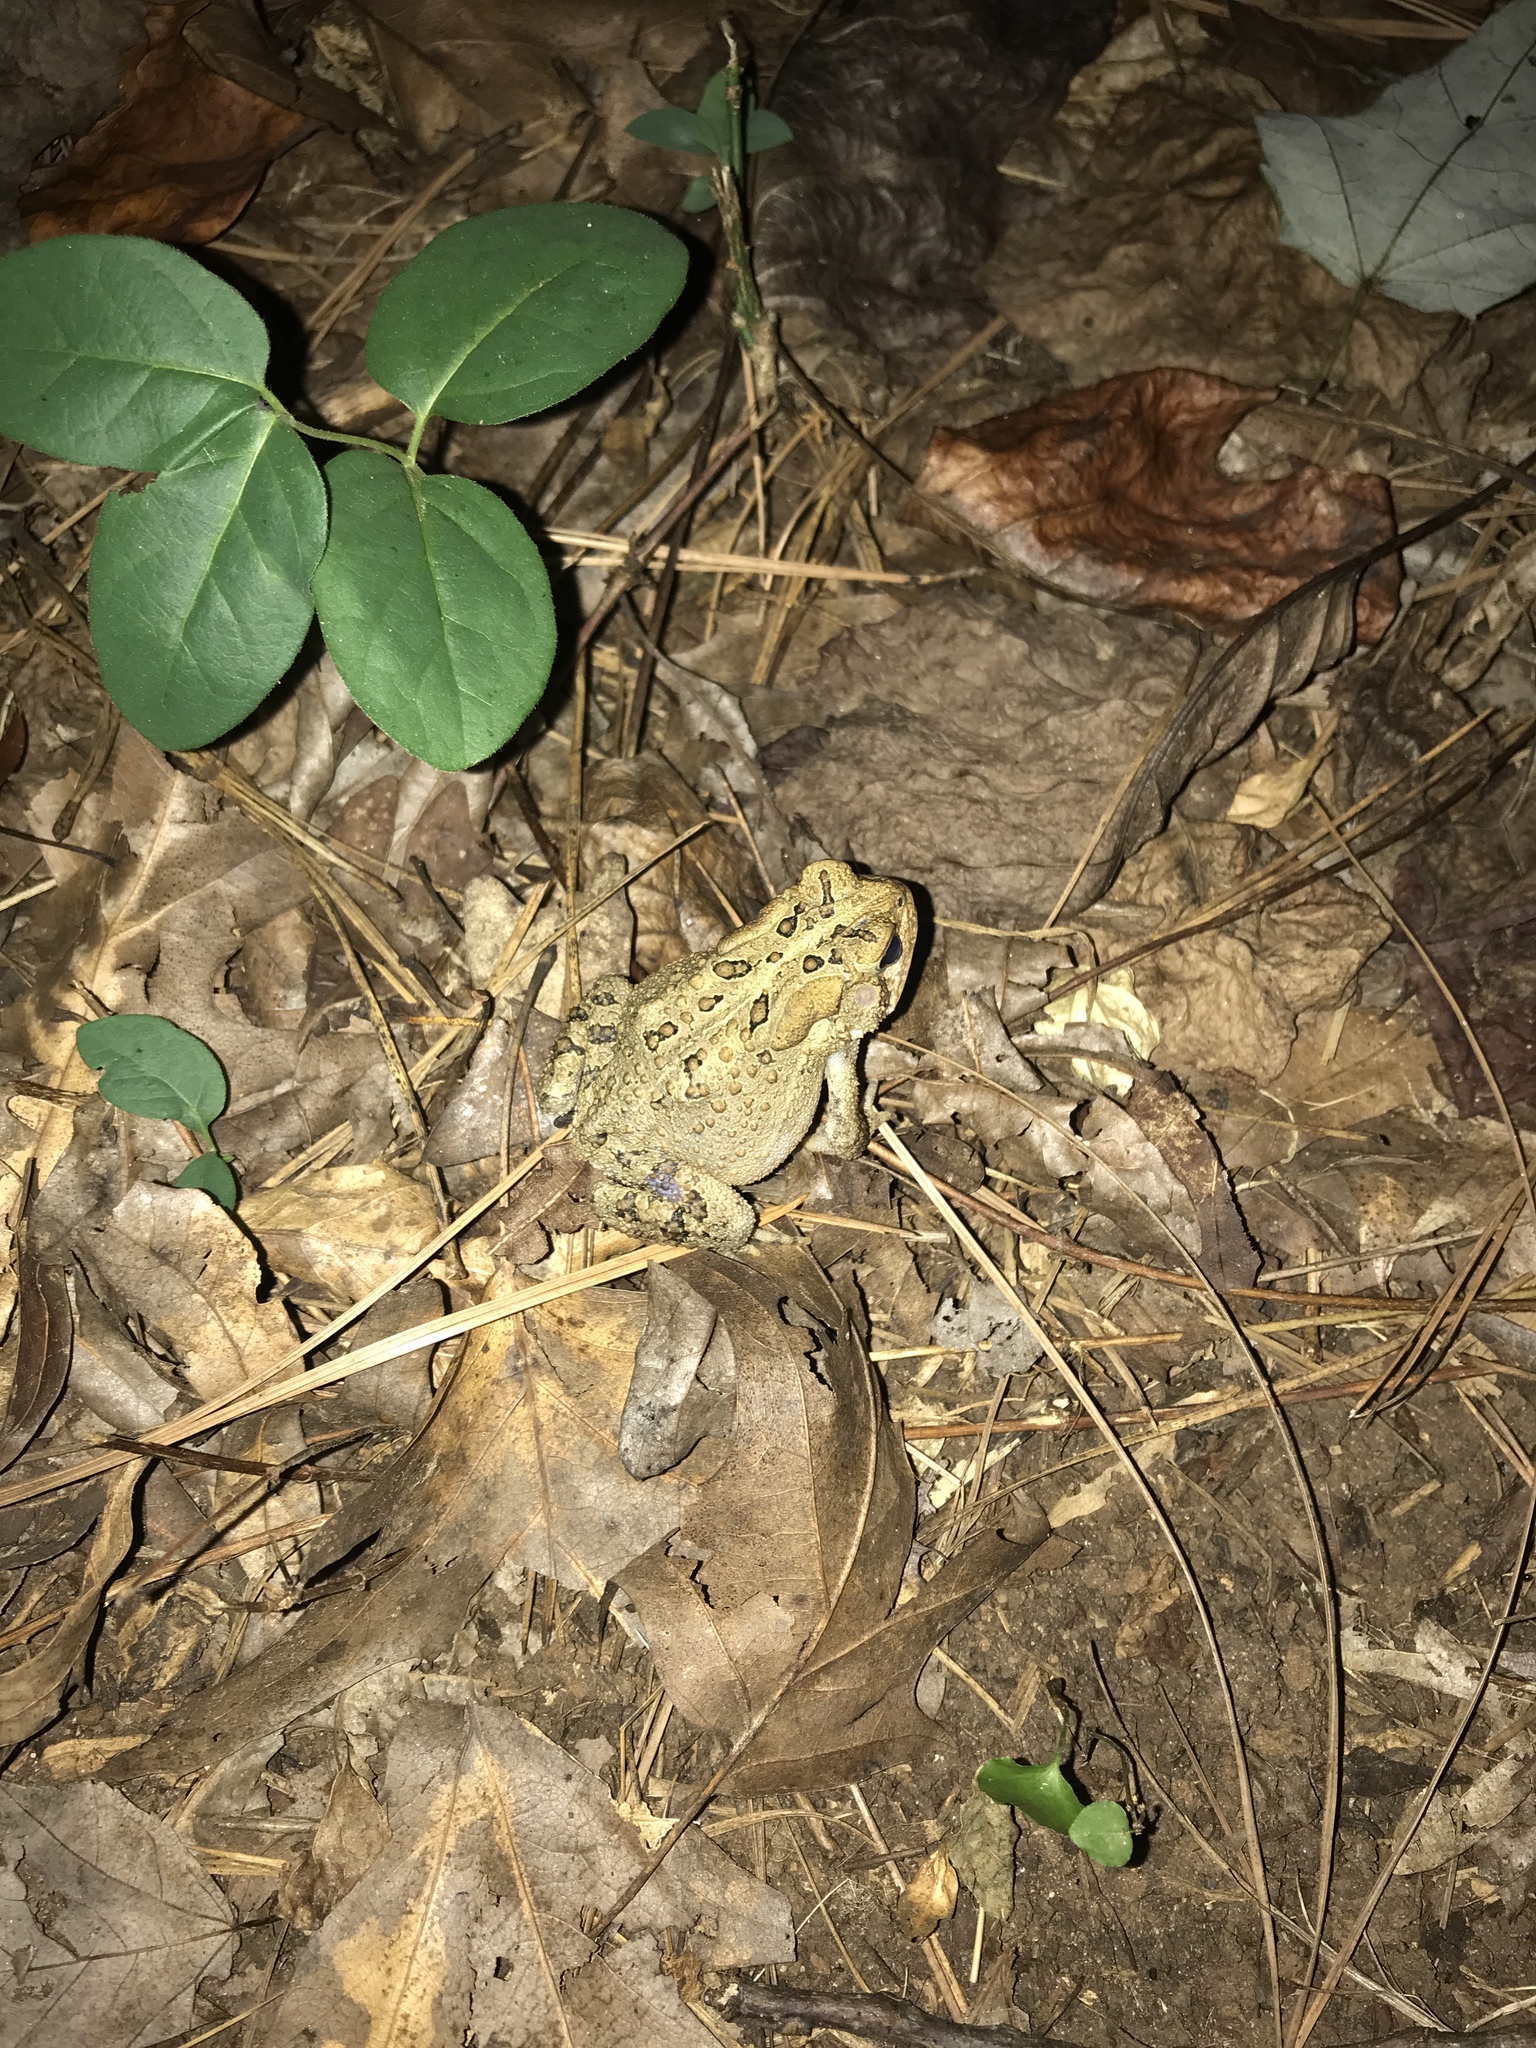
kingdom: Animalia
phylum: Chordata
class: Amphibia
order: Anura
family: Bufonidae
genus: Anaxyrus
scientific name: Anaxyrus americanus
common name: American toad
